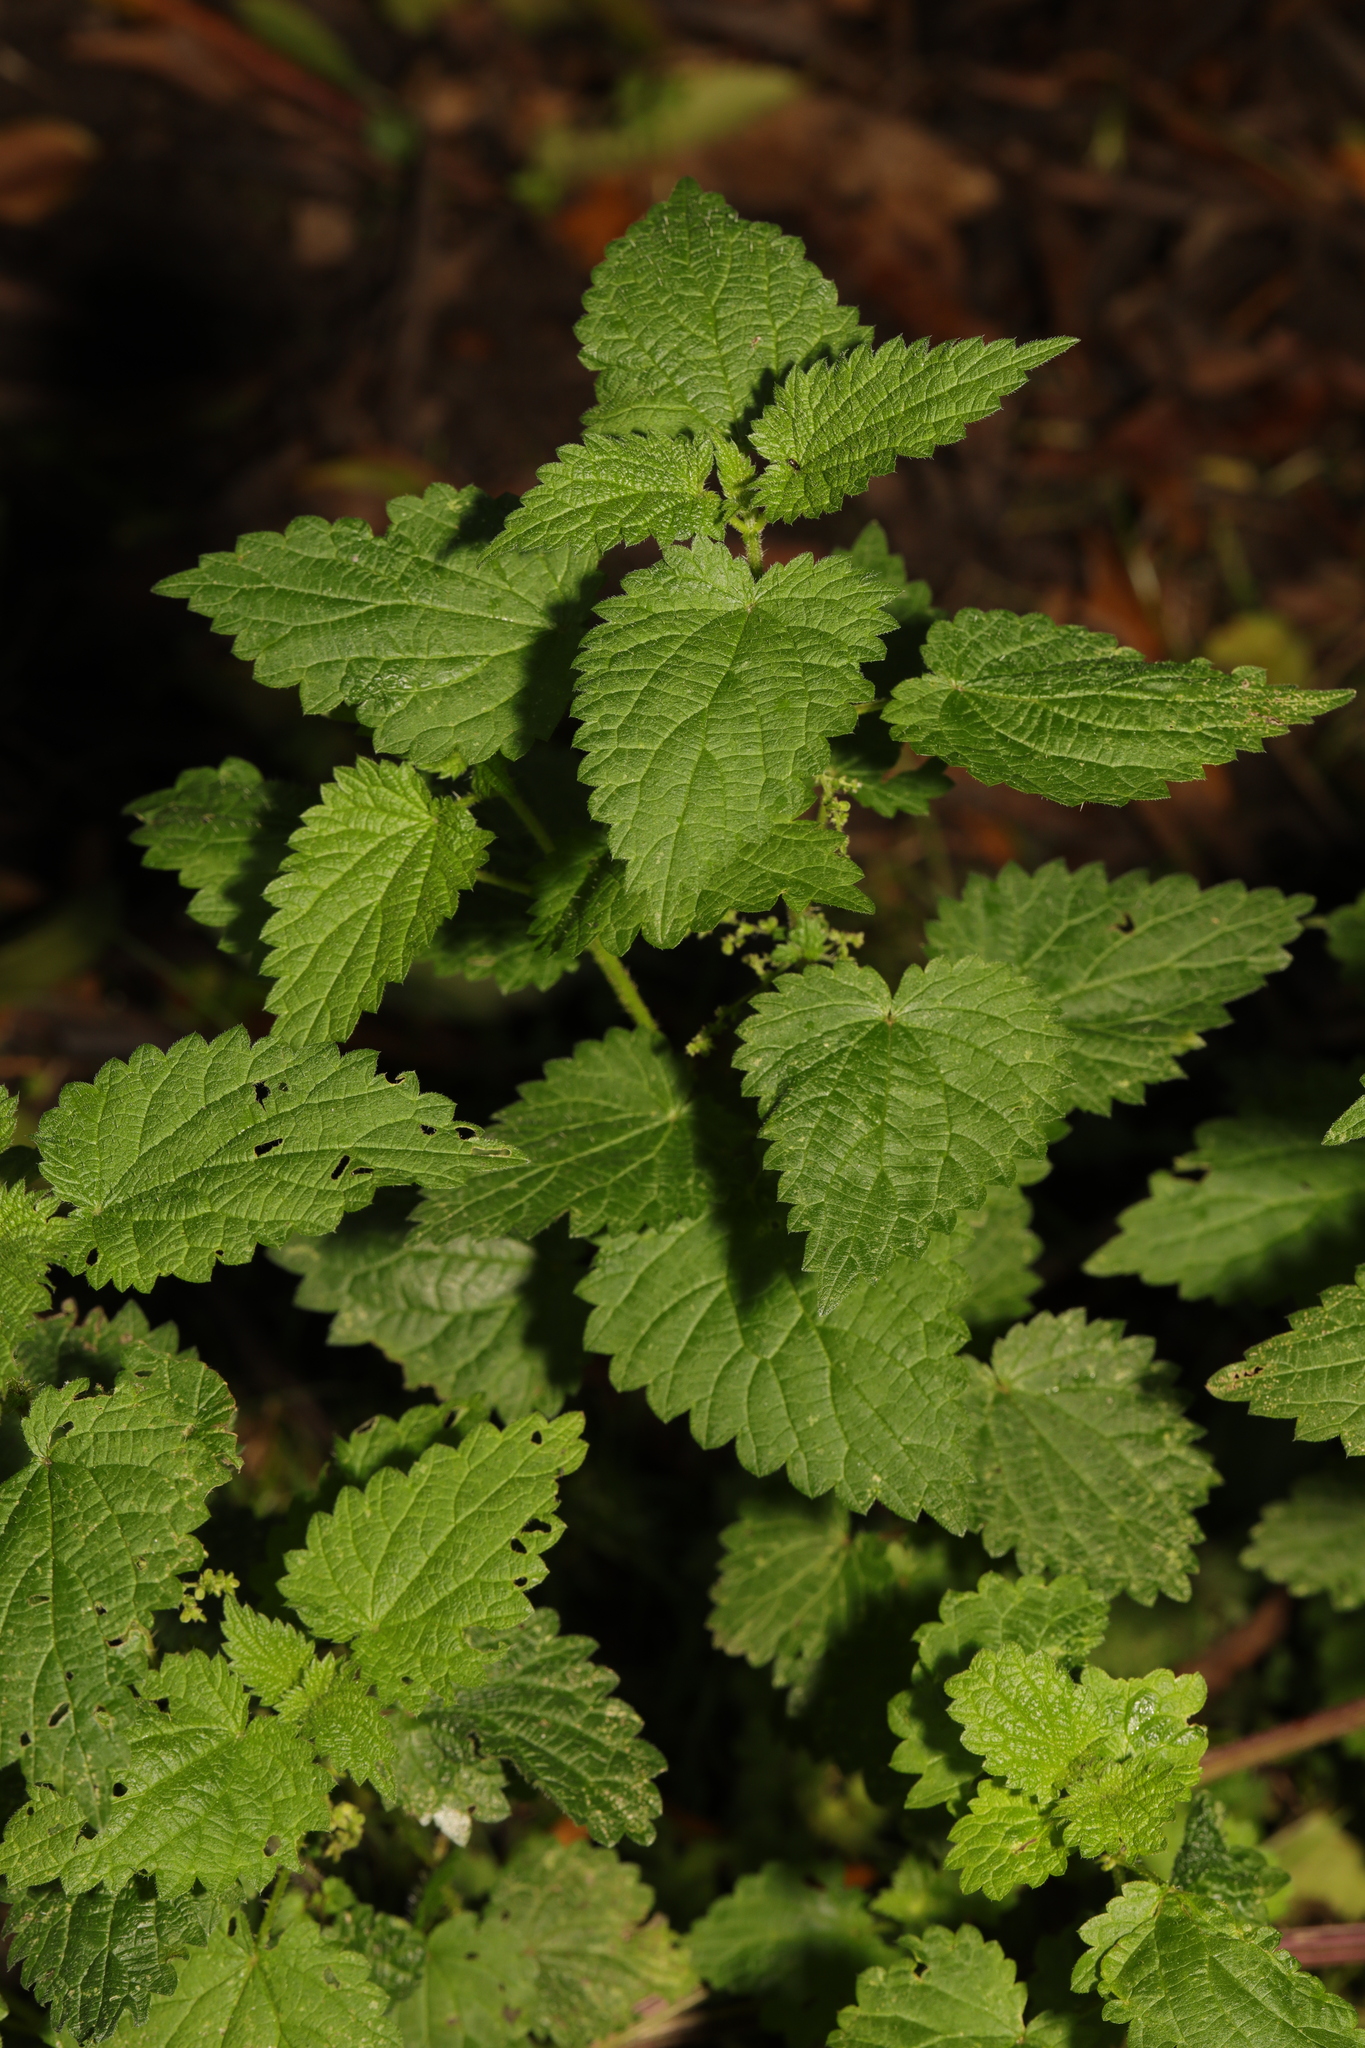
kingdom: Plantae
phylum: Tracheophyta
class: Magnoliopsida
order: Rosales
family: Urticaceae
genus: Urtica
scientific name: Urtica dioica
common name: Common nettle
